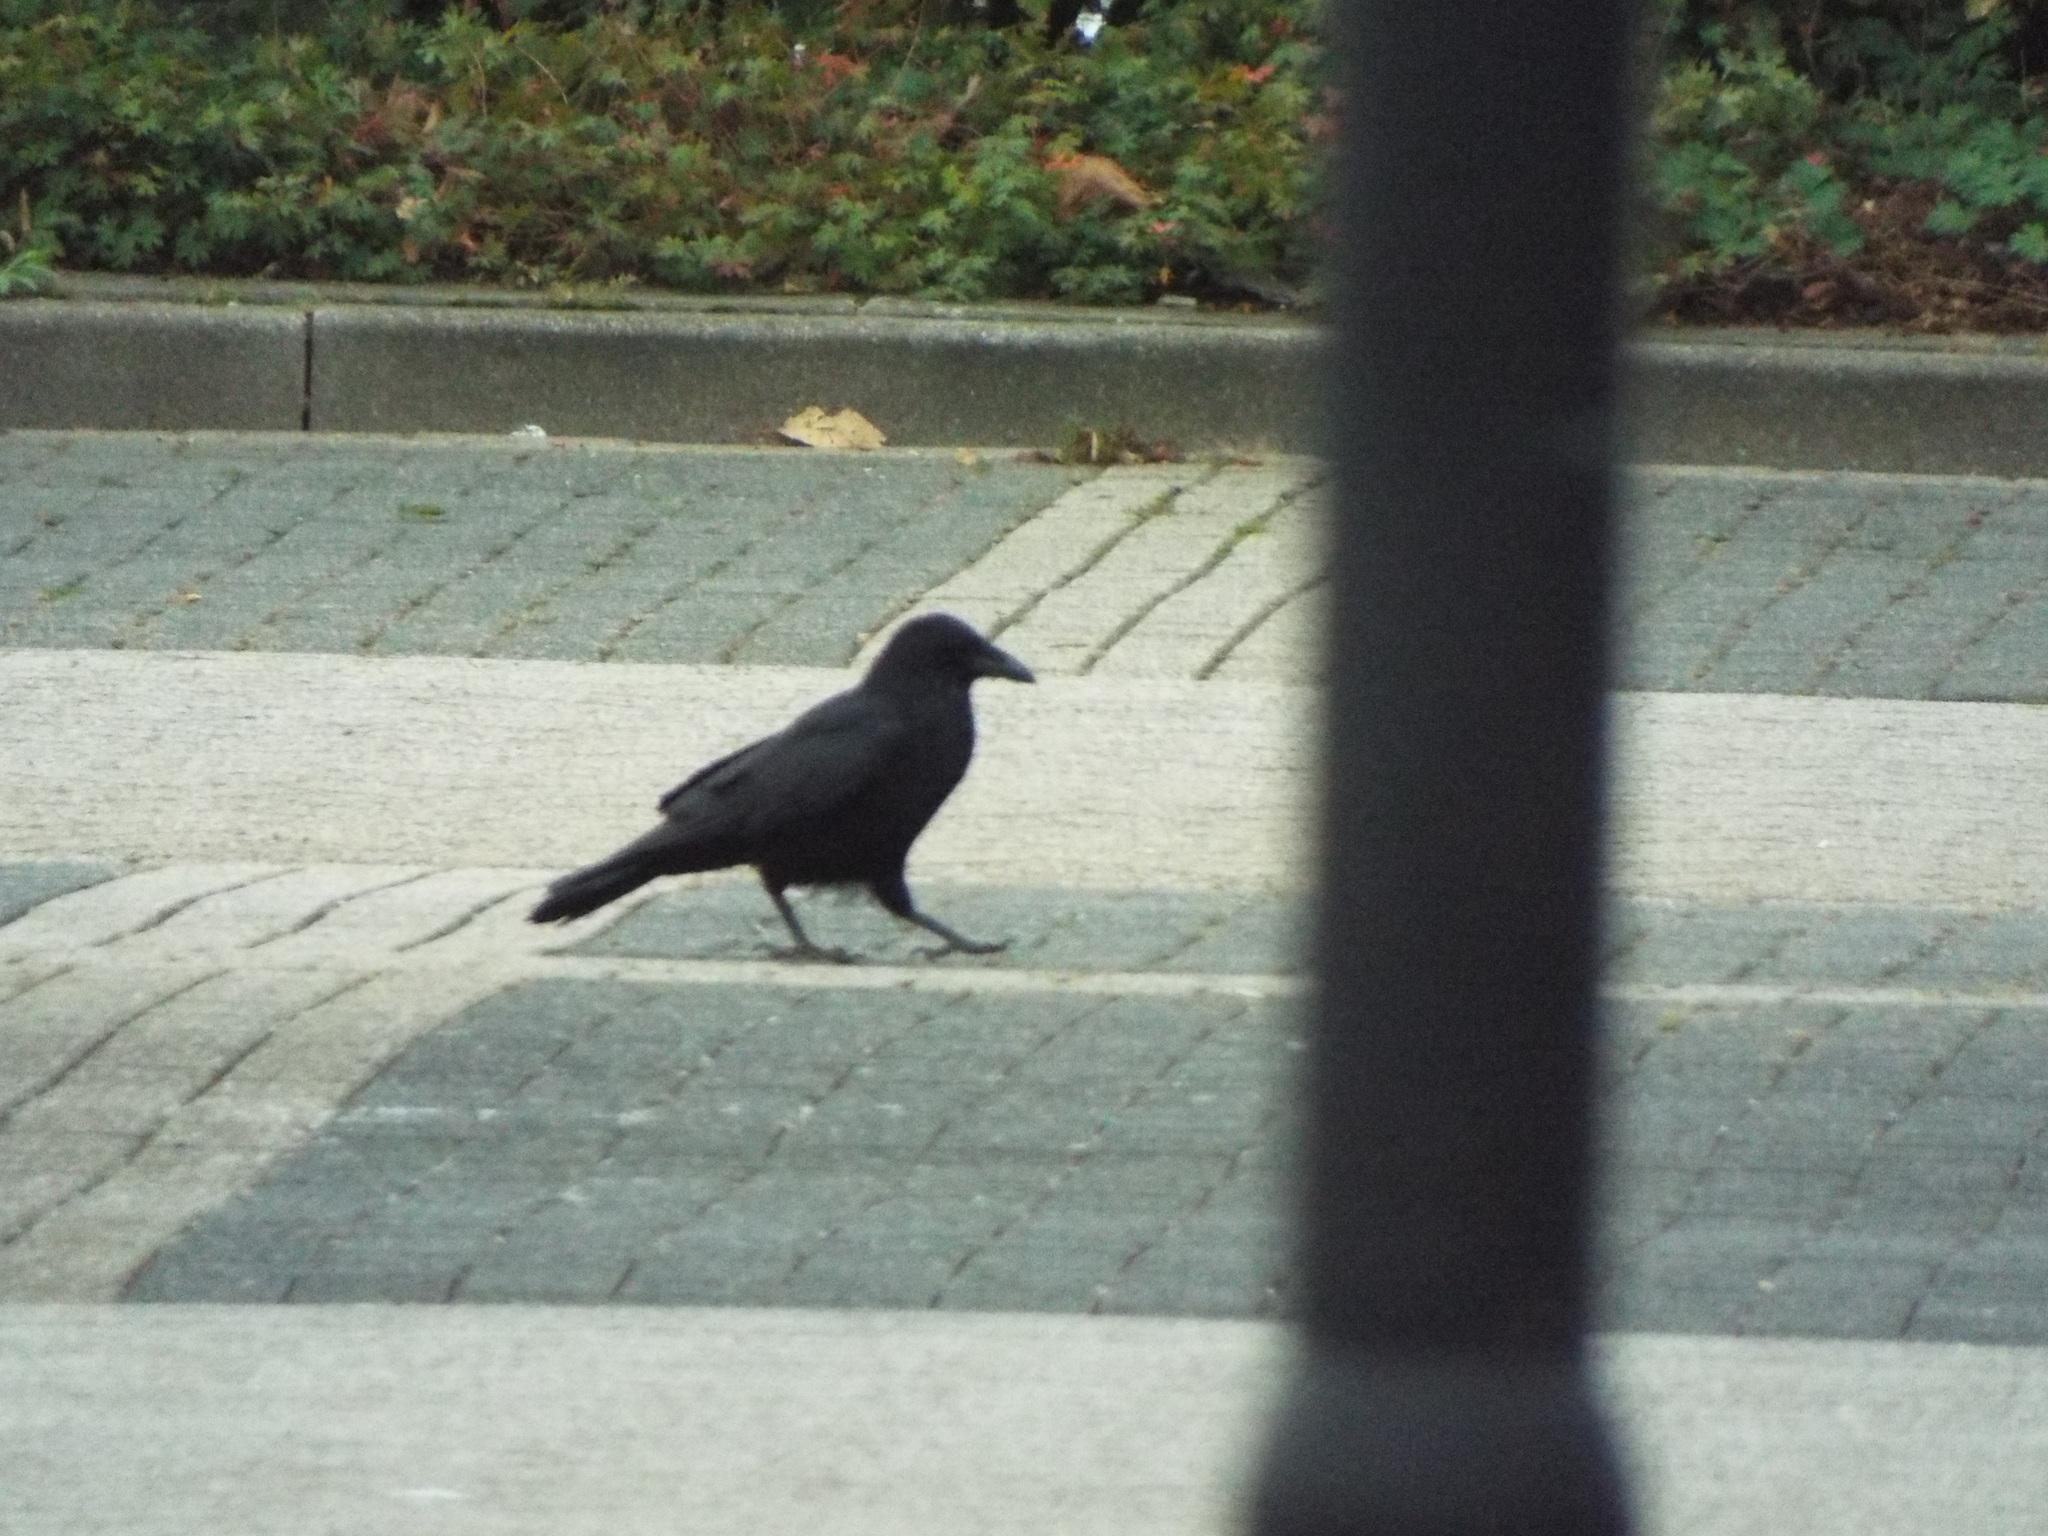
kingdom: Animalia
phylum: Chordata
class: Aves
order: Passeriformes
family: Corvidae
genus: Corvus
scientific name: Corvus corone
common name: Carrion crow
